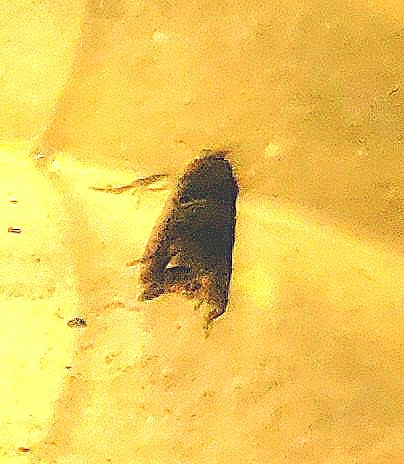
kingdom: Animalia
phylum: Arthropoda
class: Insecta
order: Lepidoptera
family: Tortricidae
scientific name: Tortricidae
